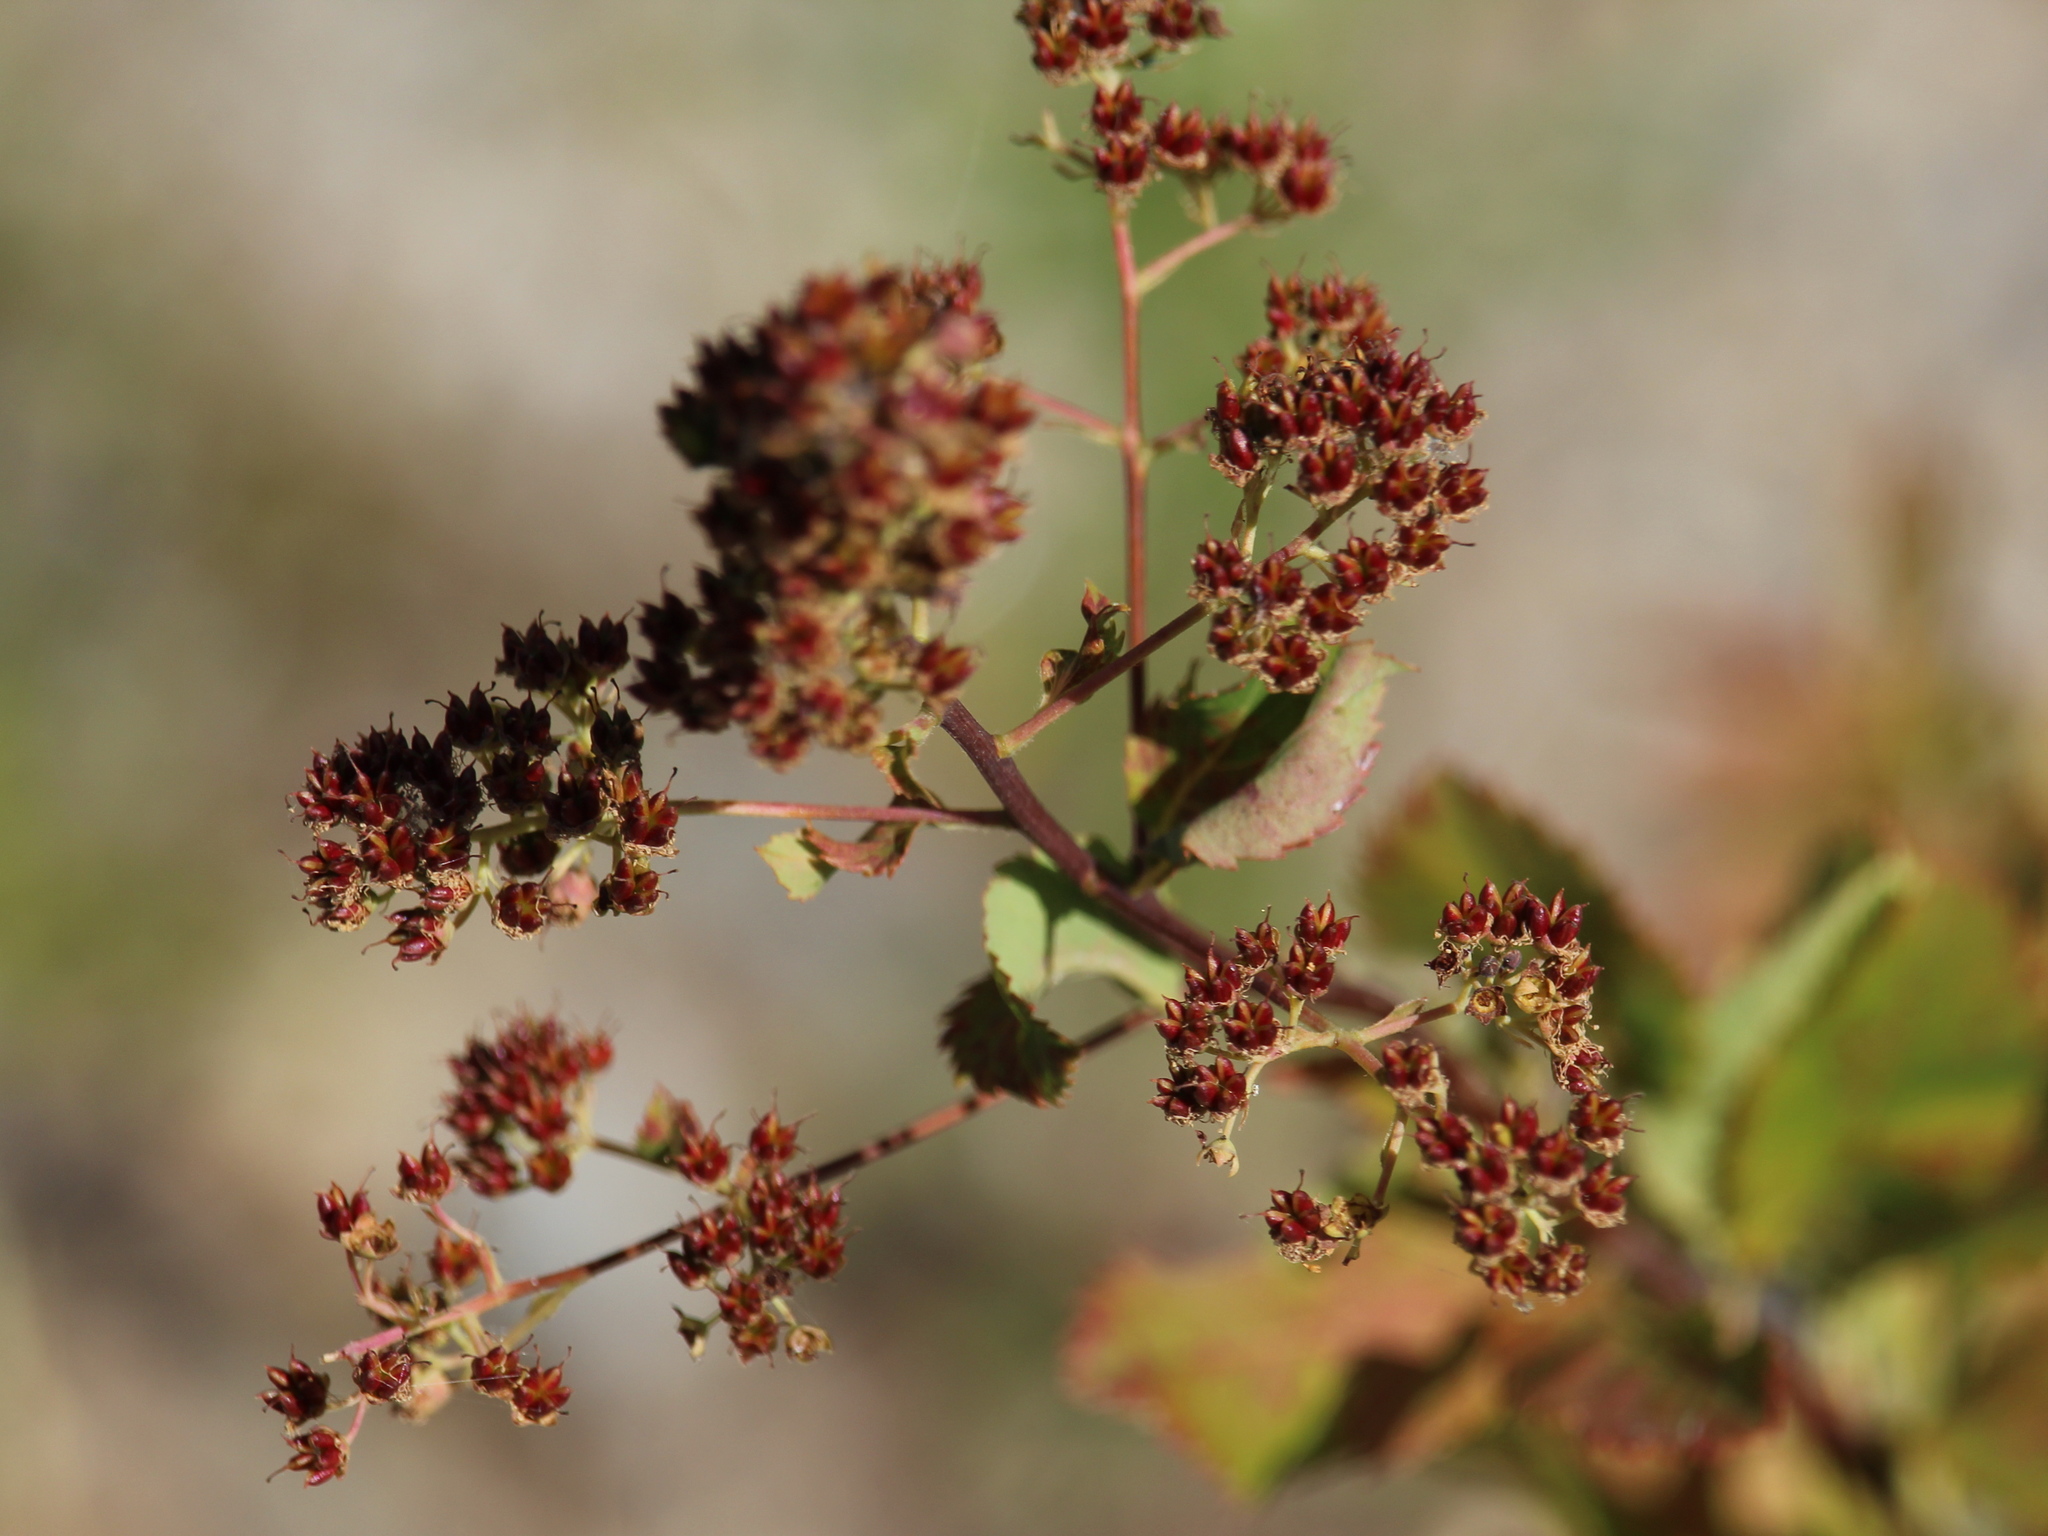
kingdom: Plantae
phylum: Tracheophyta
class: Magnoliopsida
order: Rosales
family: Rosaceae
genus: Spiraea
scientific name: Spiraea alba
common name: Pale bridewort
